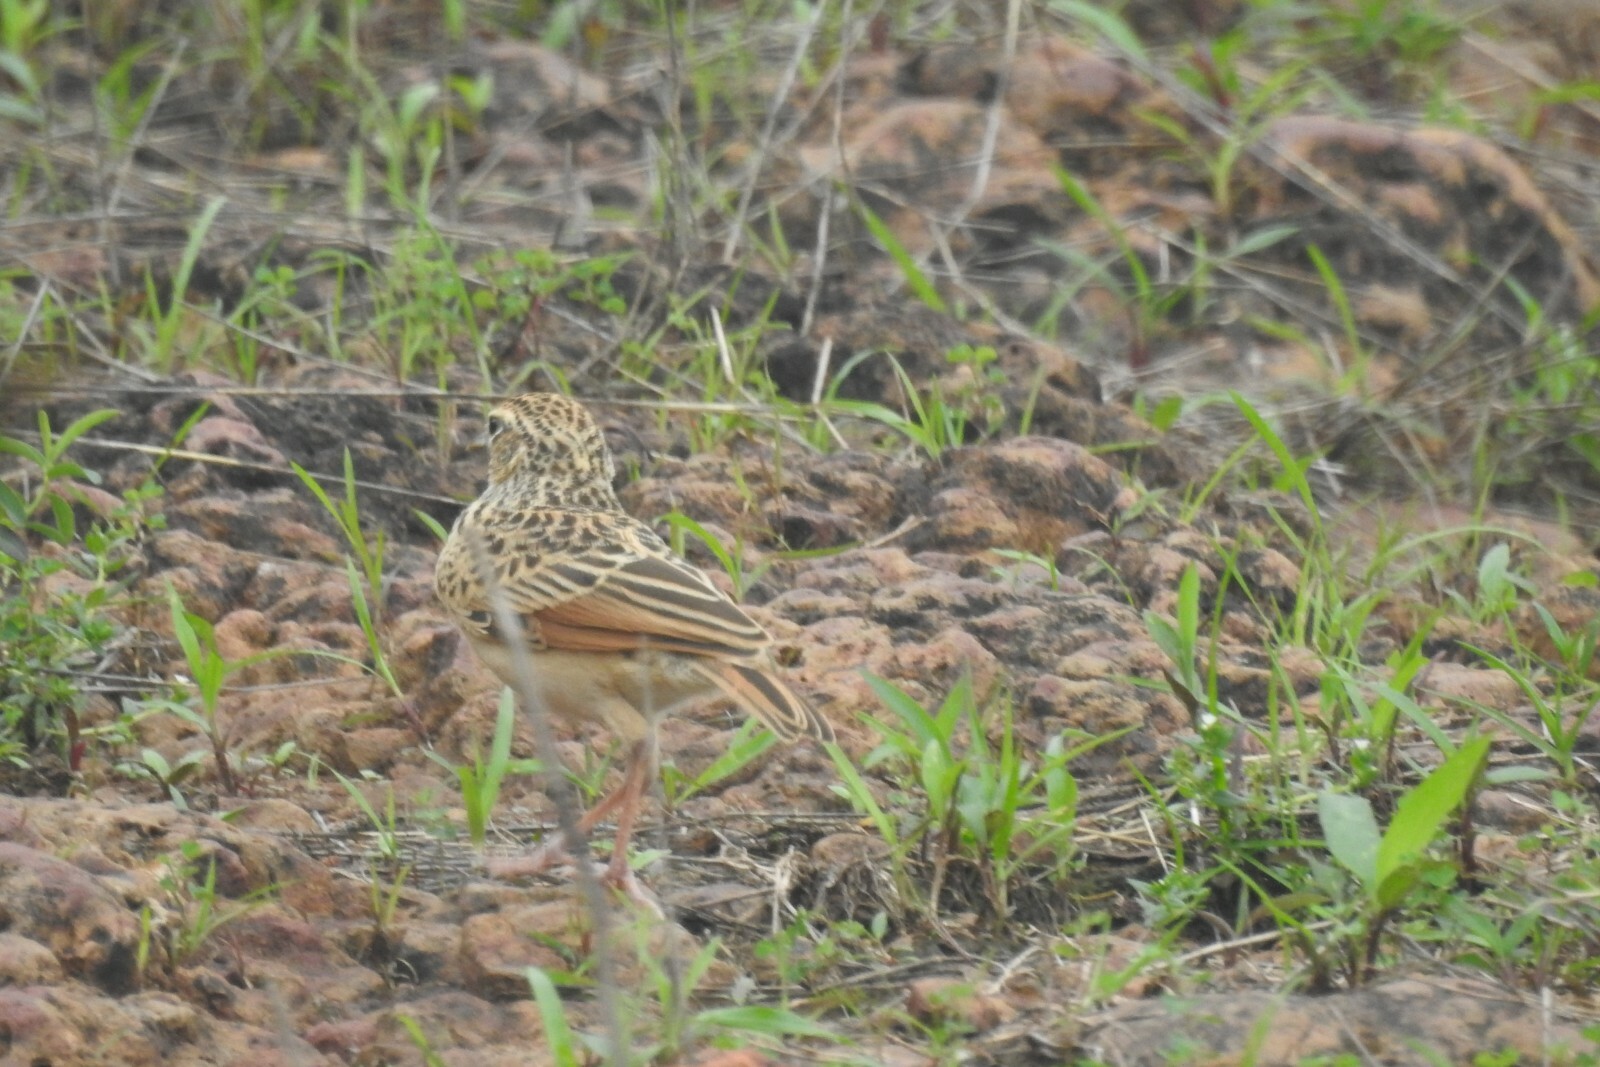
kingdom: Animalia
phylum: Chordata
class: Aves
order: Passeriformes
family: Alaudidae
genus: Mirafra
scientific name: Mirafra affinis
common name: Jerdon's bushlark
